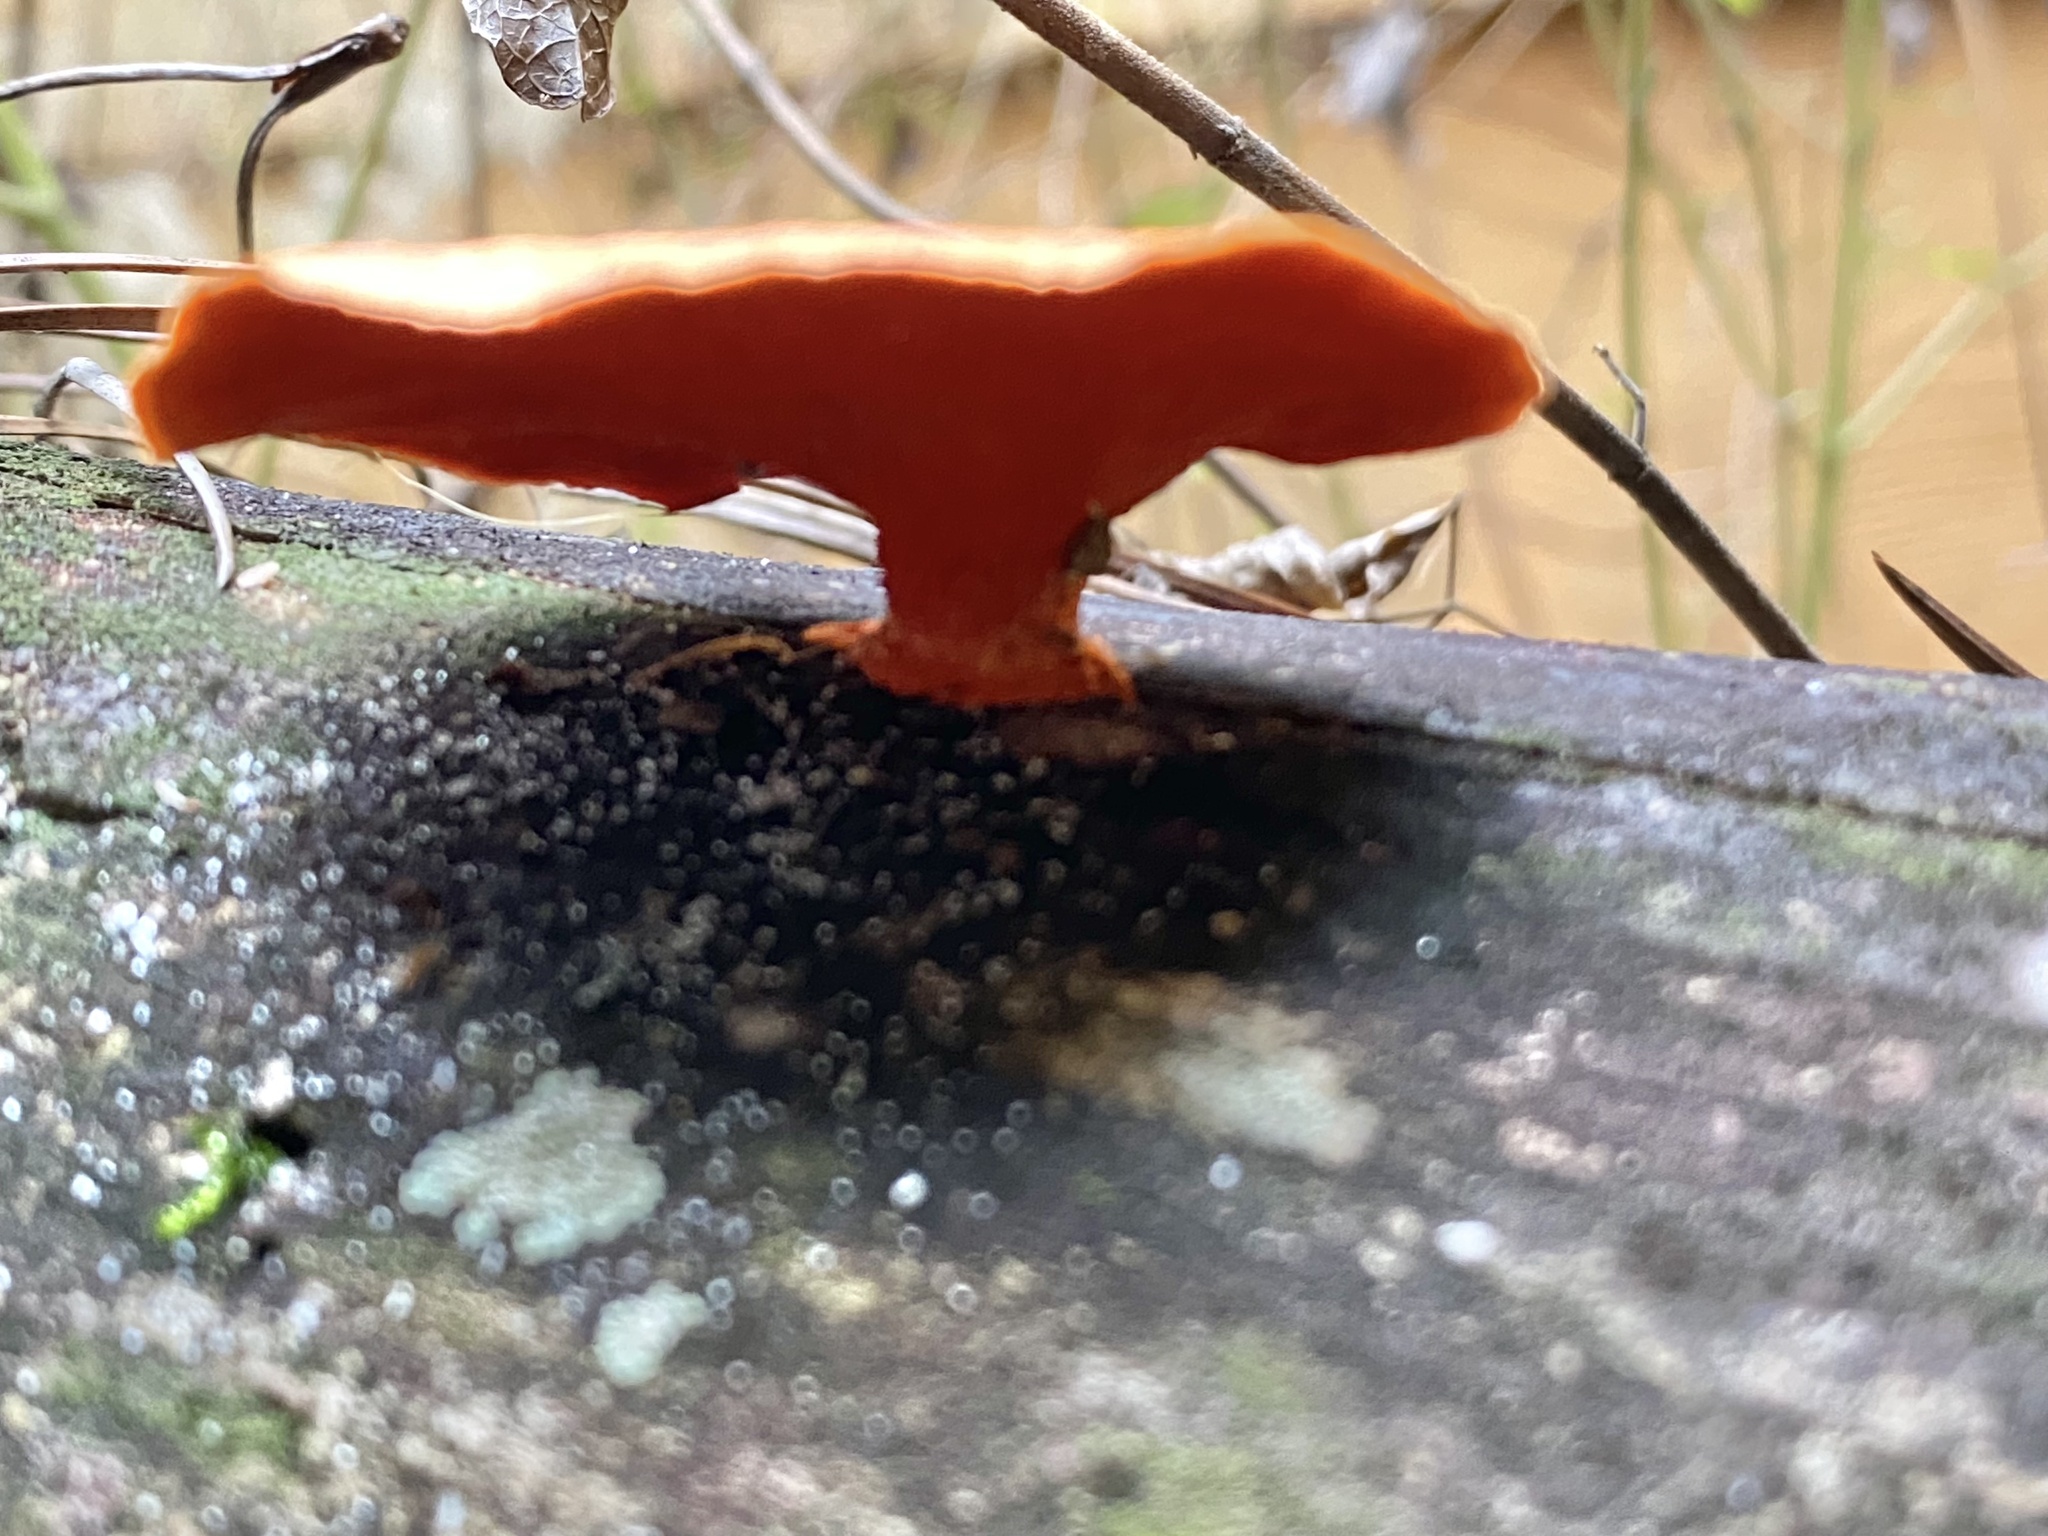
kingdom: Fungi
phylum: Basidiomycota
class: Agaricomycetes
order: Polyporales
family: Polyporaceae
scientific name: Polyporaceae
